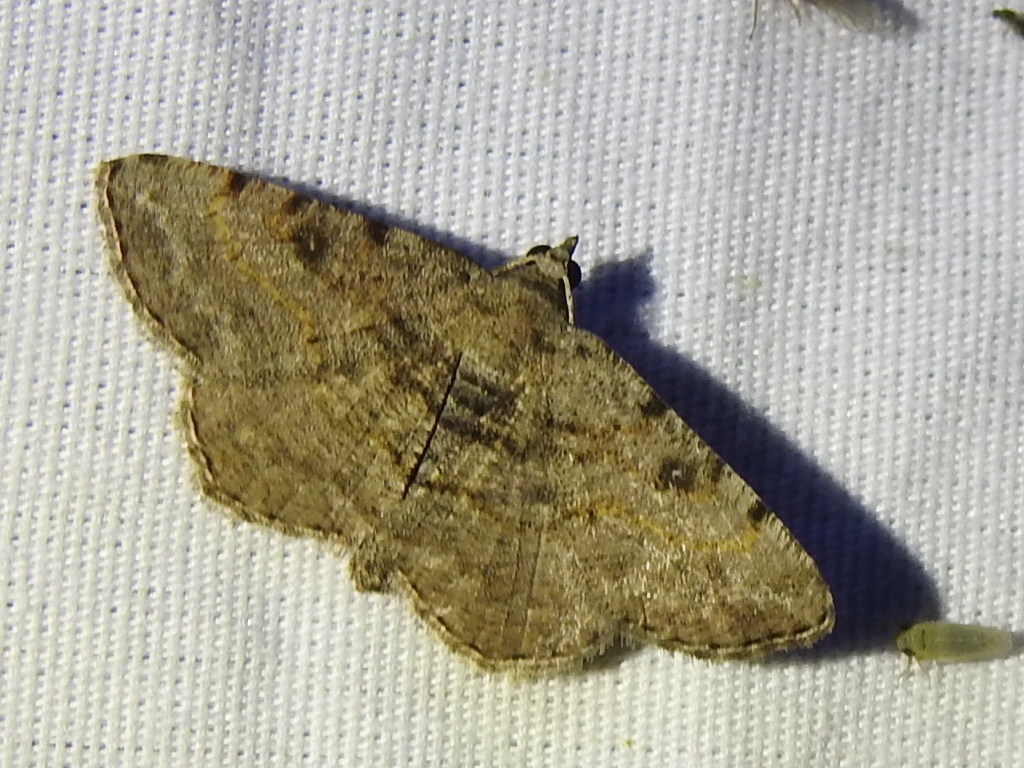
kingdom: Animalia
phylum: Arthropoda
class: Insecta
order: Lepidoptera
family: Geometridae
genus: Digrammia
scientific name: Digrammia gnophosaria
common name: Hollow-spotted angle
